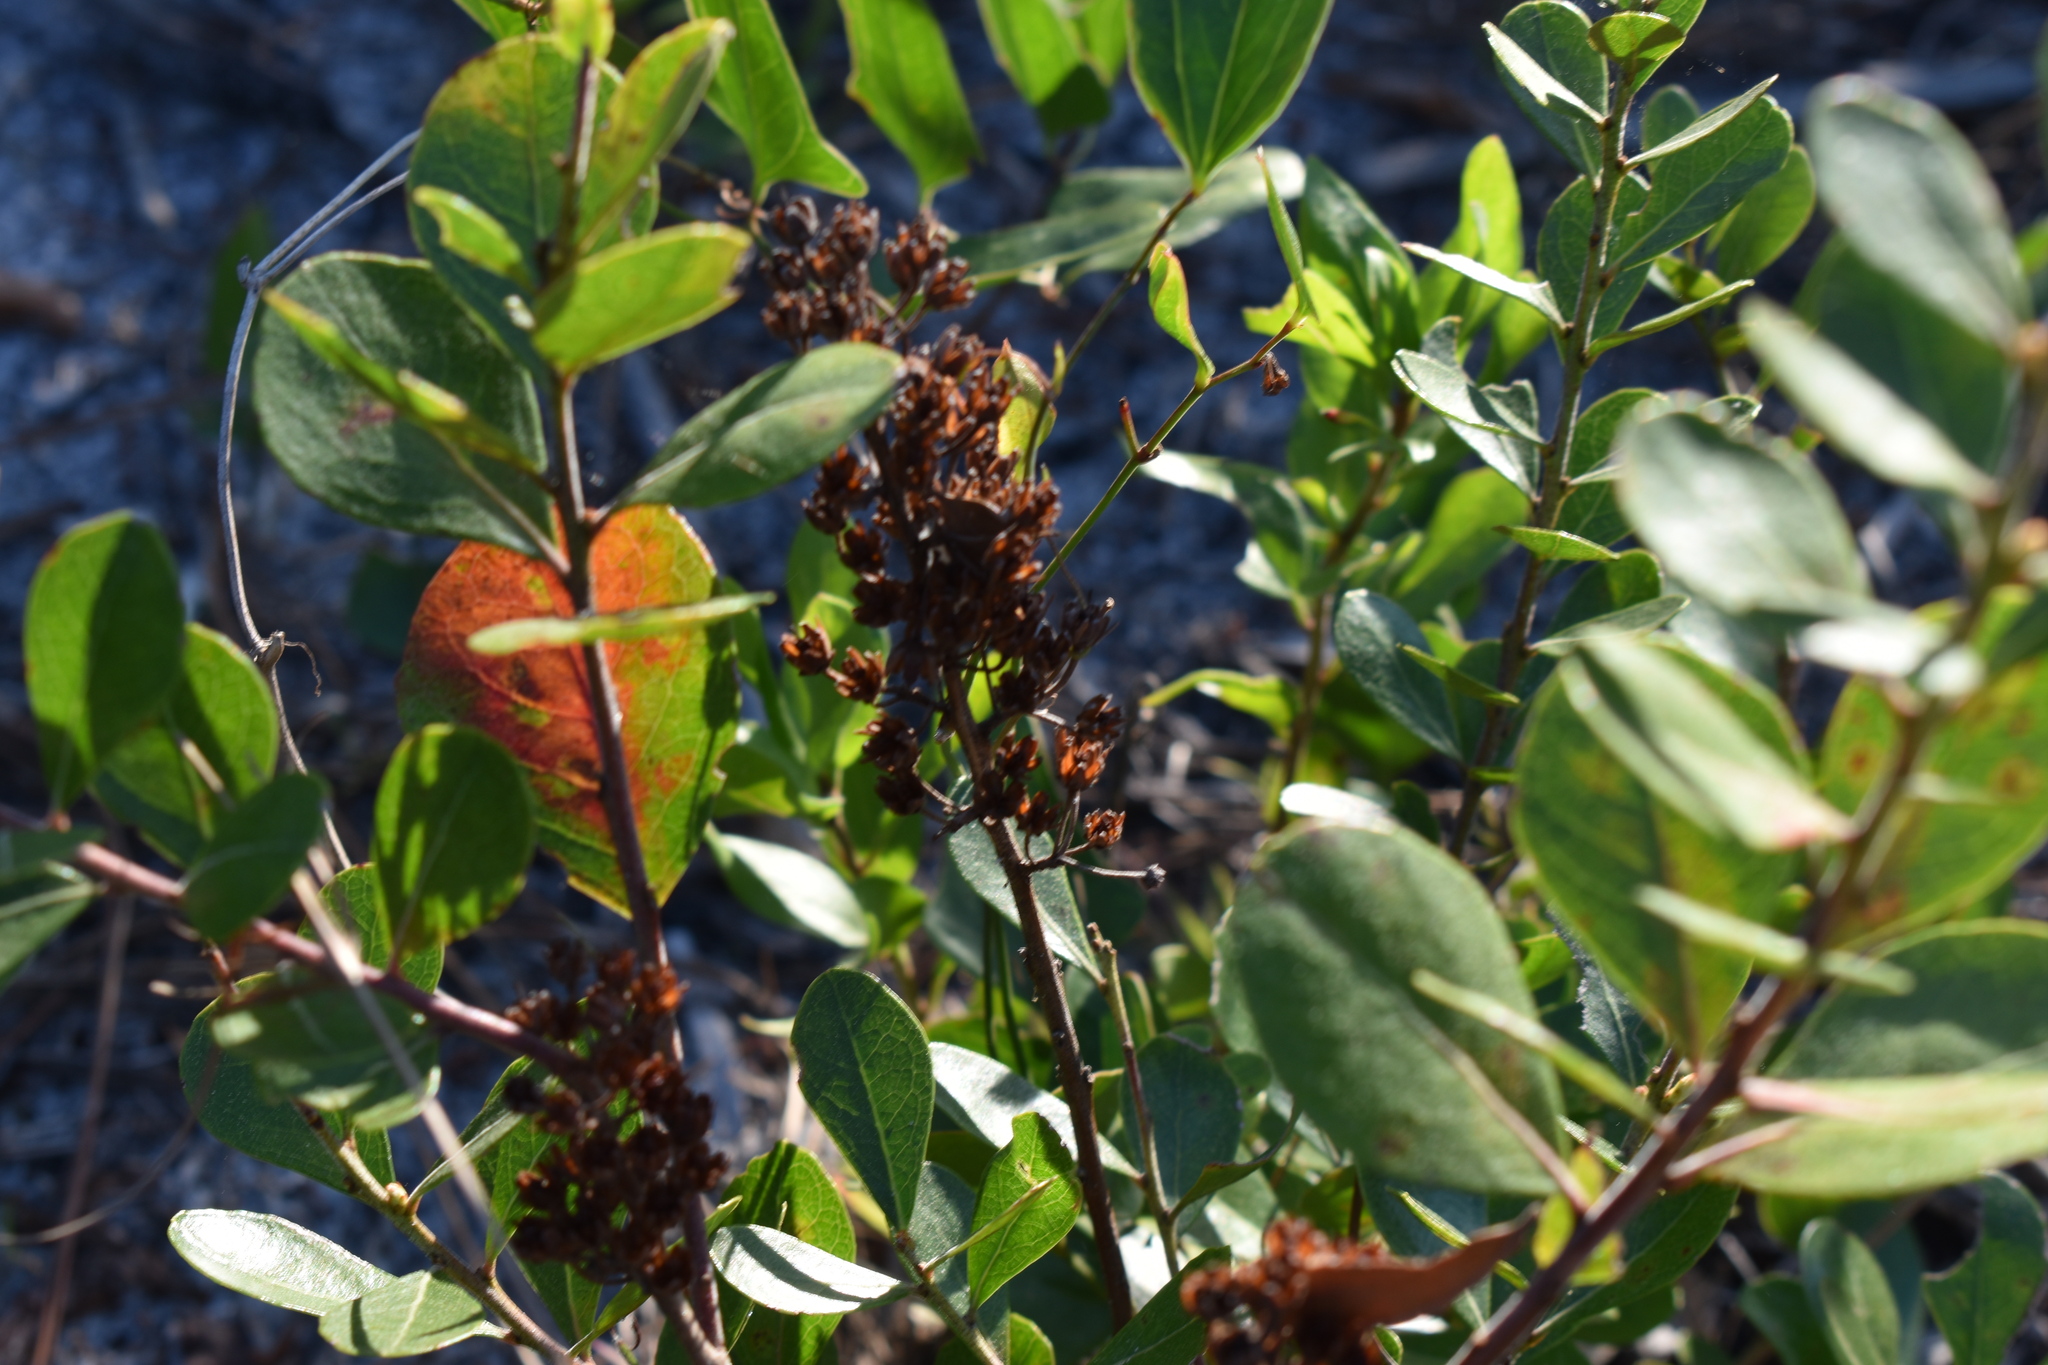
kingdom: Plantae
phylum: Tracheophyta
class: Magnoliopsida
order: Ericales
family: Ericaceae
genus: Lyonia
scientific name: Lyonia fruticosa
